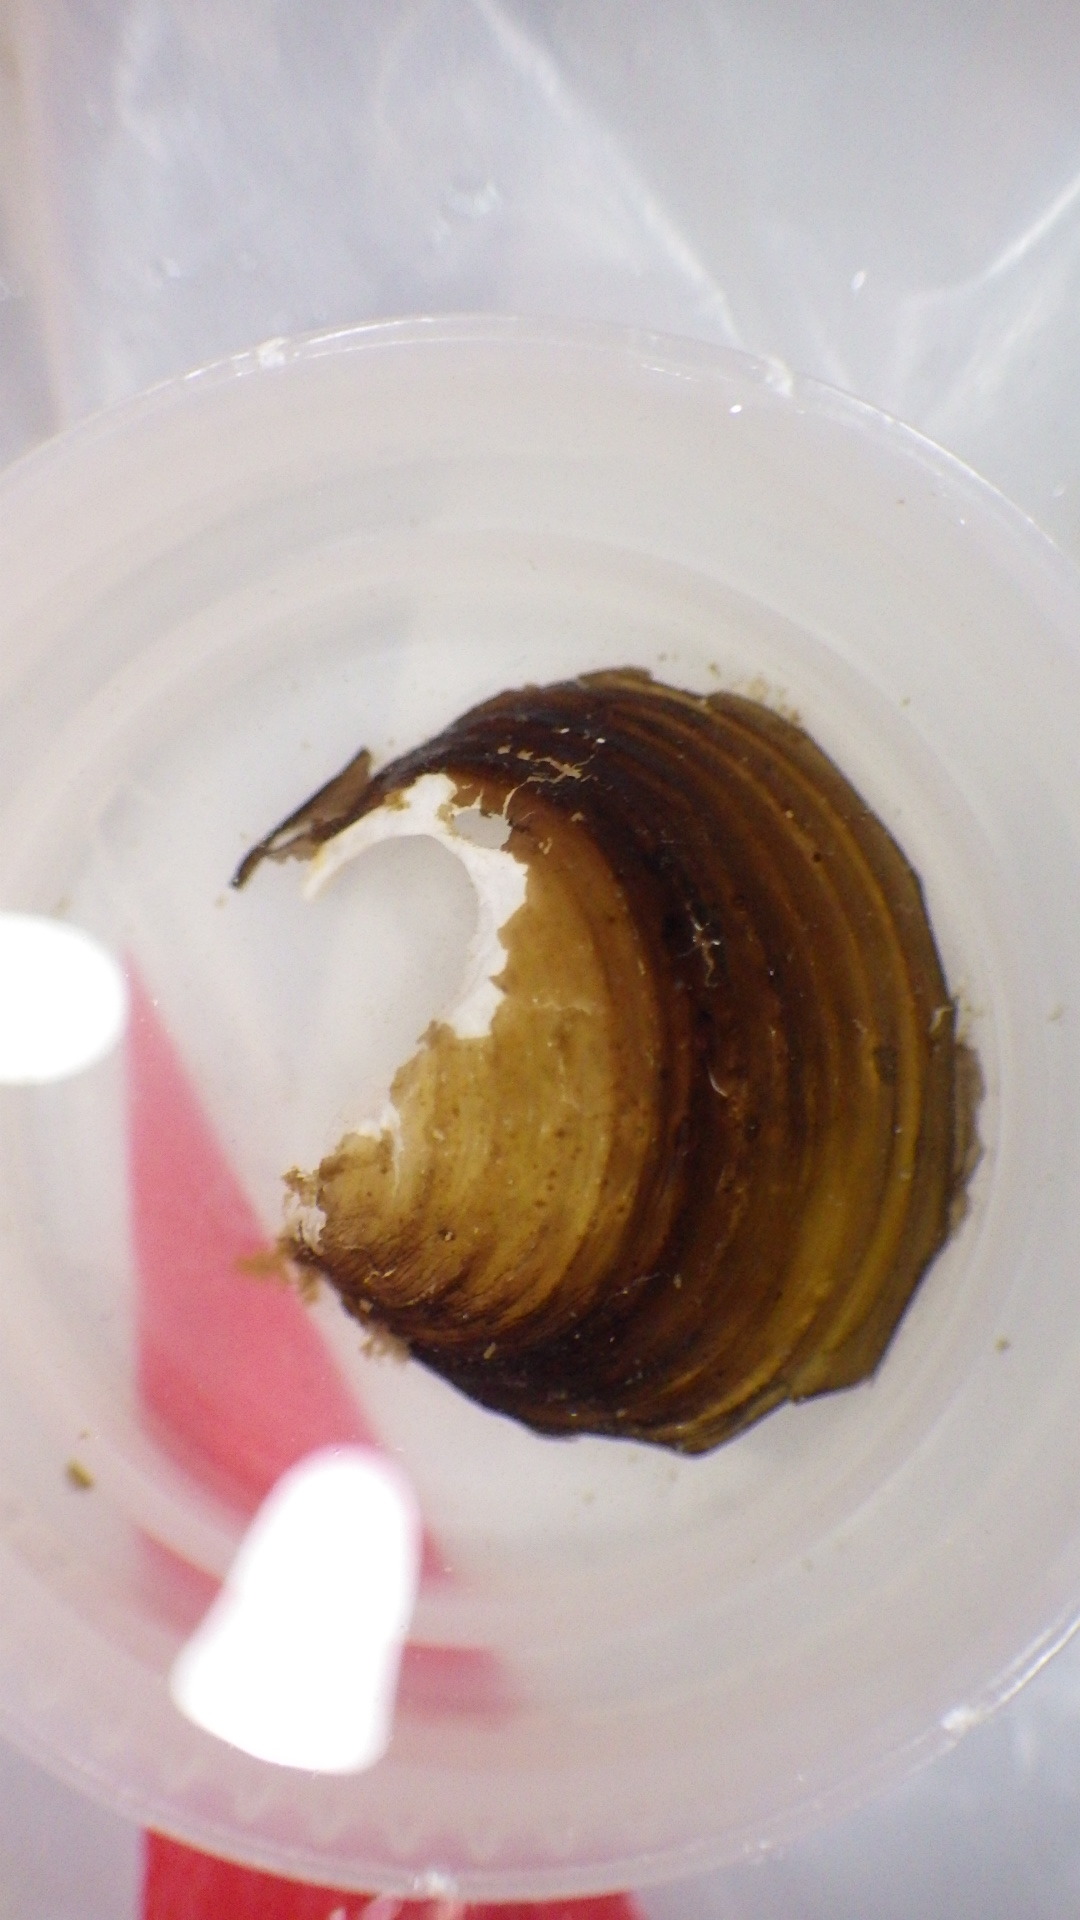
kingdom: Animalia
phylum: Mollusca
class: Bivalvia
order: Venerida
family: Cyrenidae
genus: Corbicula
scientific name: Corbicula fluminea
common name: Asian clam
